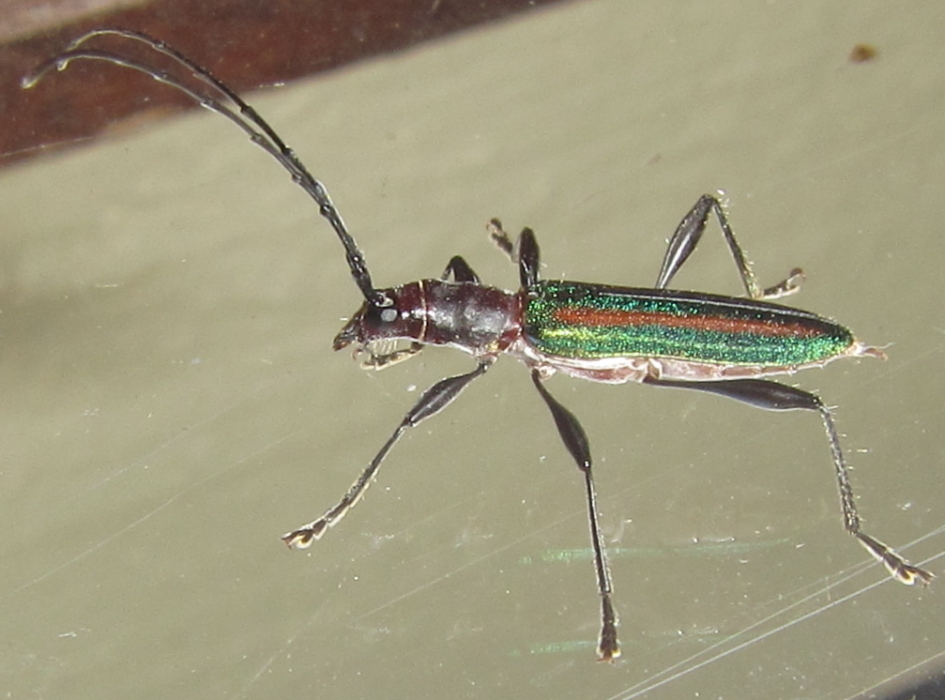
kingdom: Animalia
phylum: Arthropoda
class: Insecta
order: Coleoptera
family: Cerambycidae
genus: Zosterius
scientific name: Zosterius laetus
